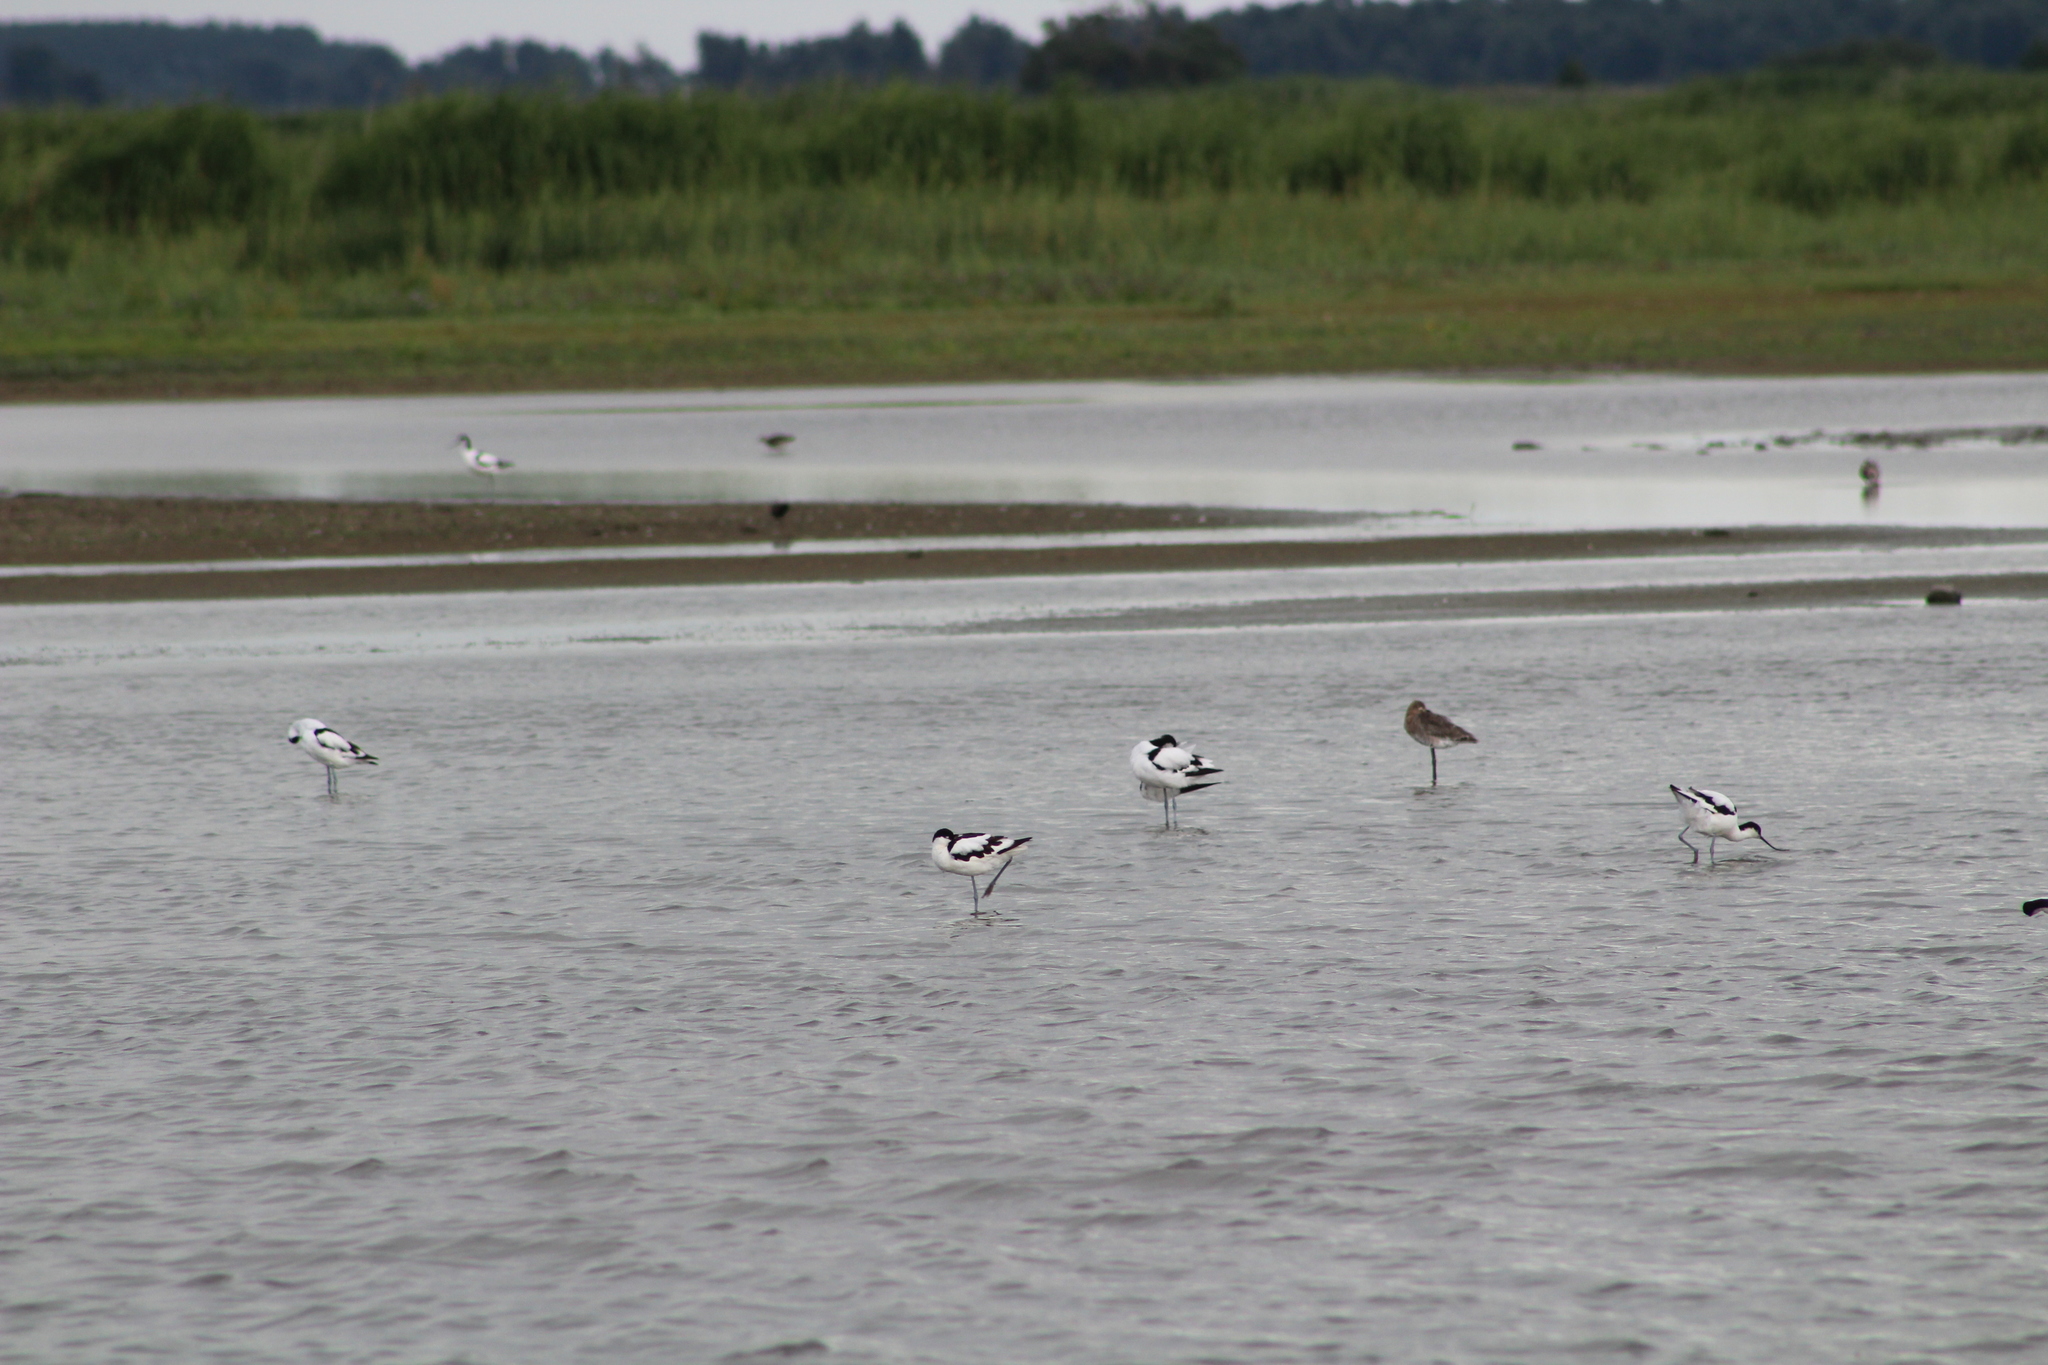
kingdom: Animalia
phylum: Chordata
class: Aves
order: Charadriiformes
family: Recurvirostridae
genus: Recurvirostra
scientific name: Recurvirostra avosetta
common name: Pied avocet
